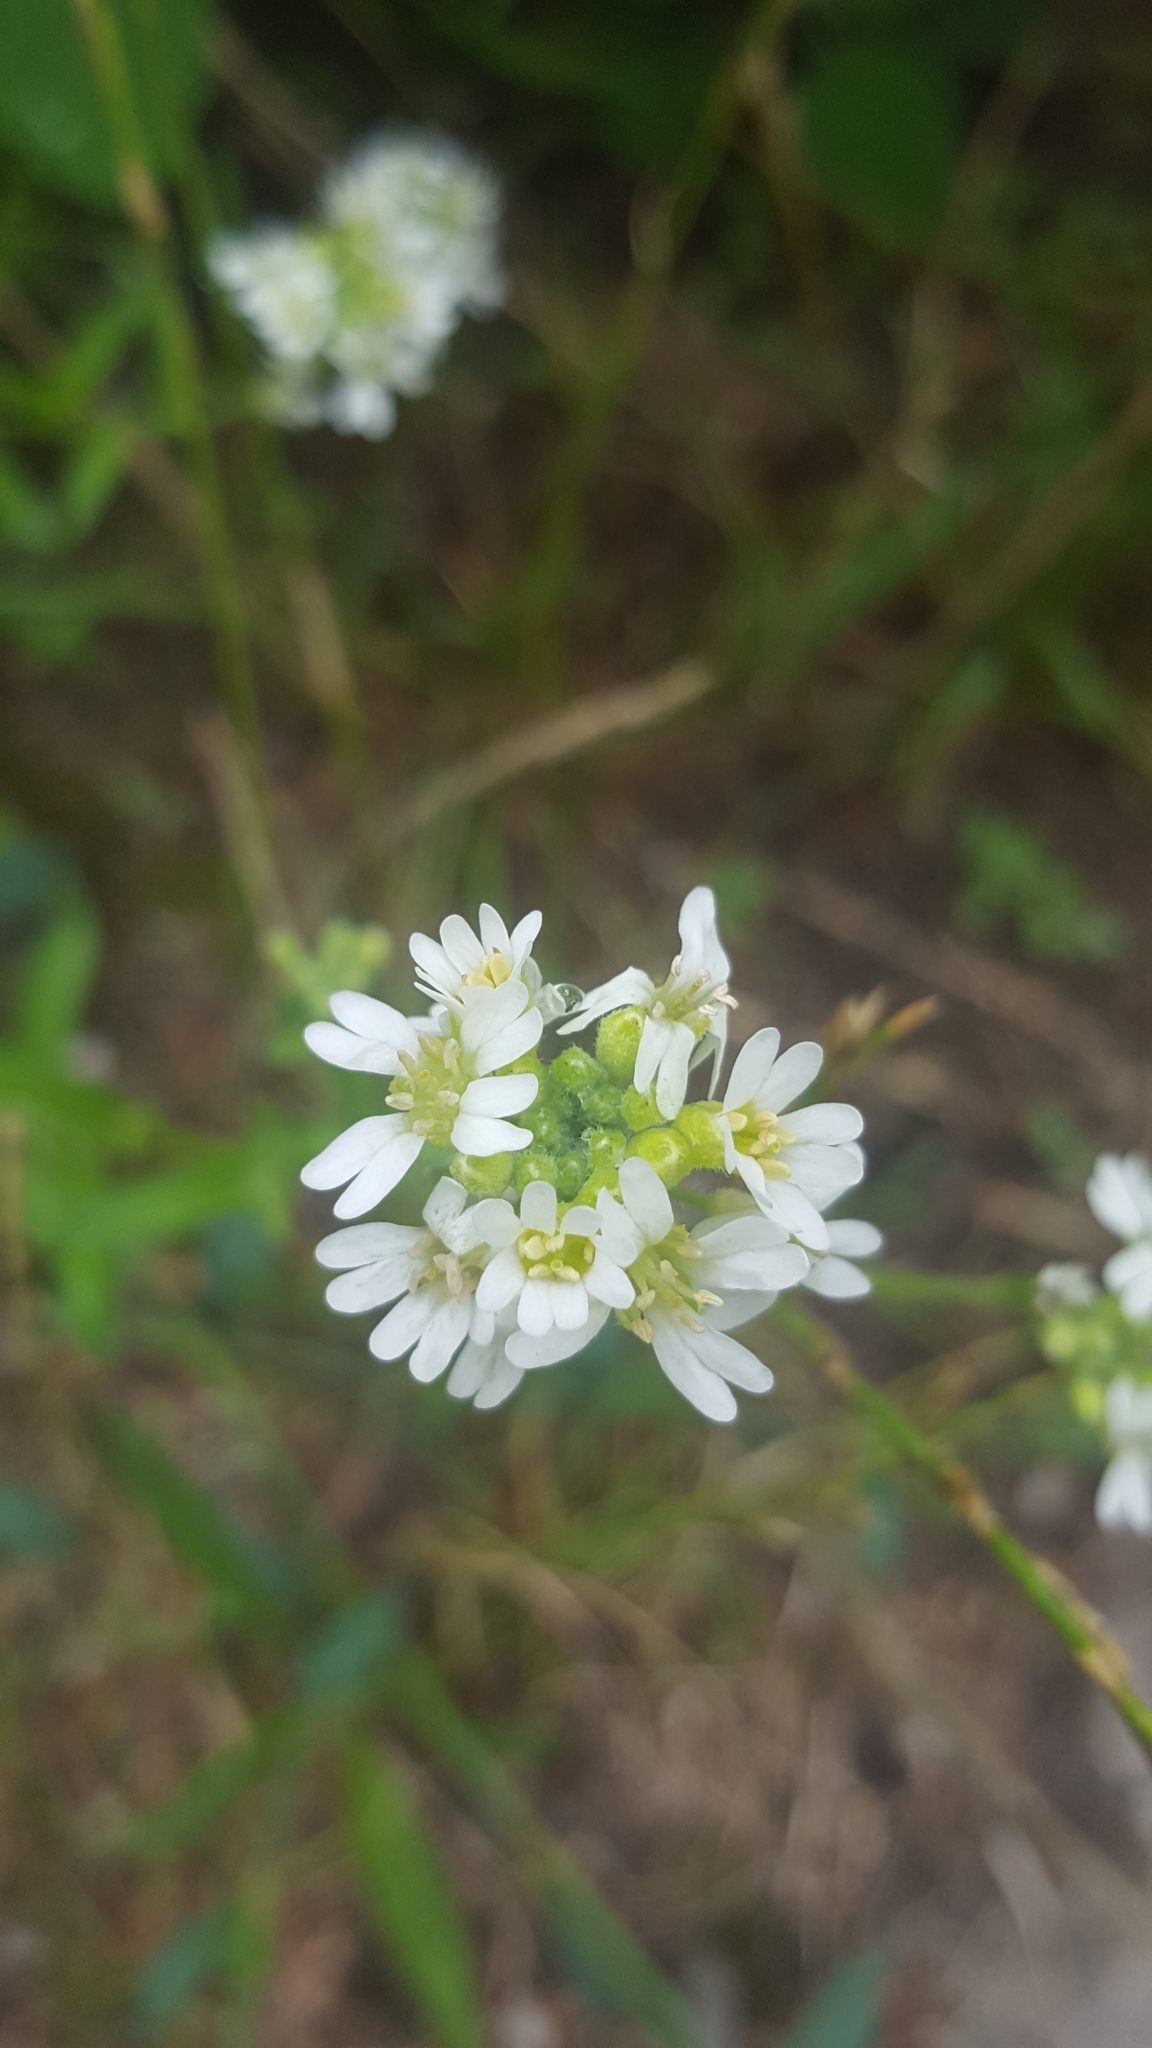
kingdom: Plantae
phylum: Tracheophyta
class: Magnoliopsida
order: Brassicales
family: Brassicaceae
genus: Berteroa
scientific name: Berteroa incana
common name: Hoary alison
